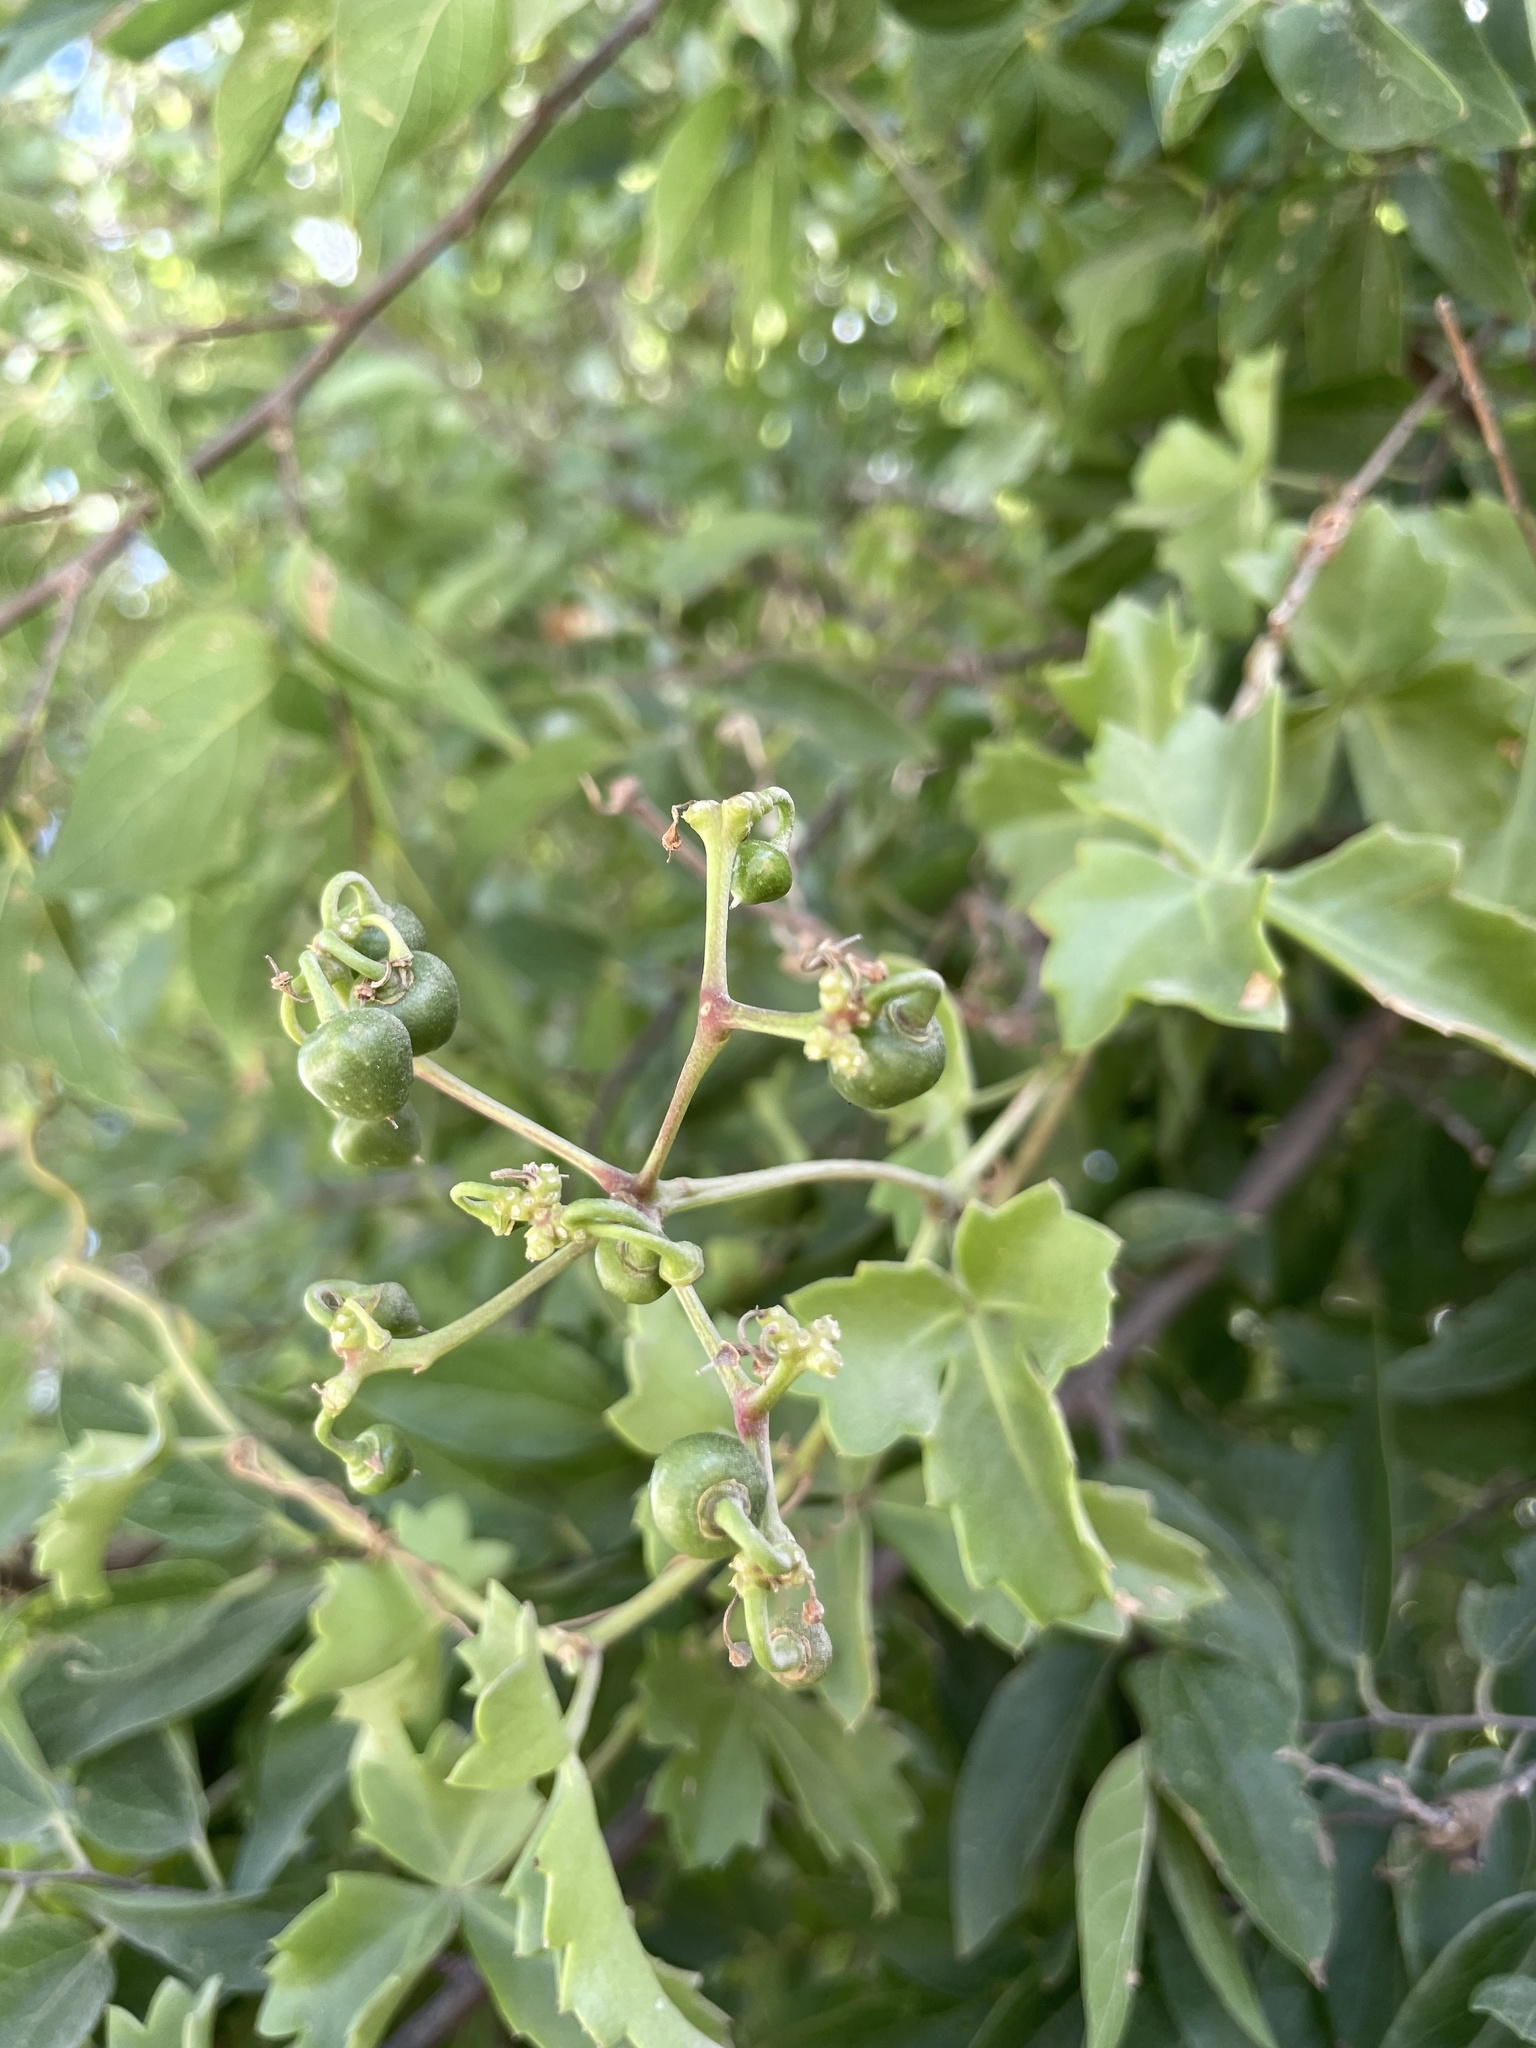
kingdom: Plantae
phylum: Tracheophyta
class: Magnoliopsida
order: Vitales
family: Vitaceae
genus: Cissus
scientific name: Cissus trifoliata
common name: Vine-sorrel
